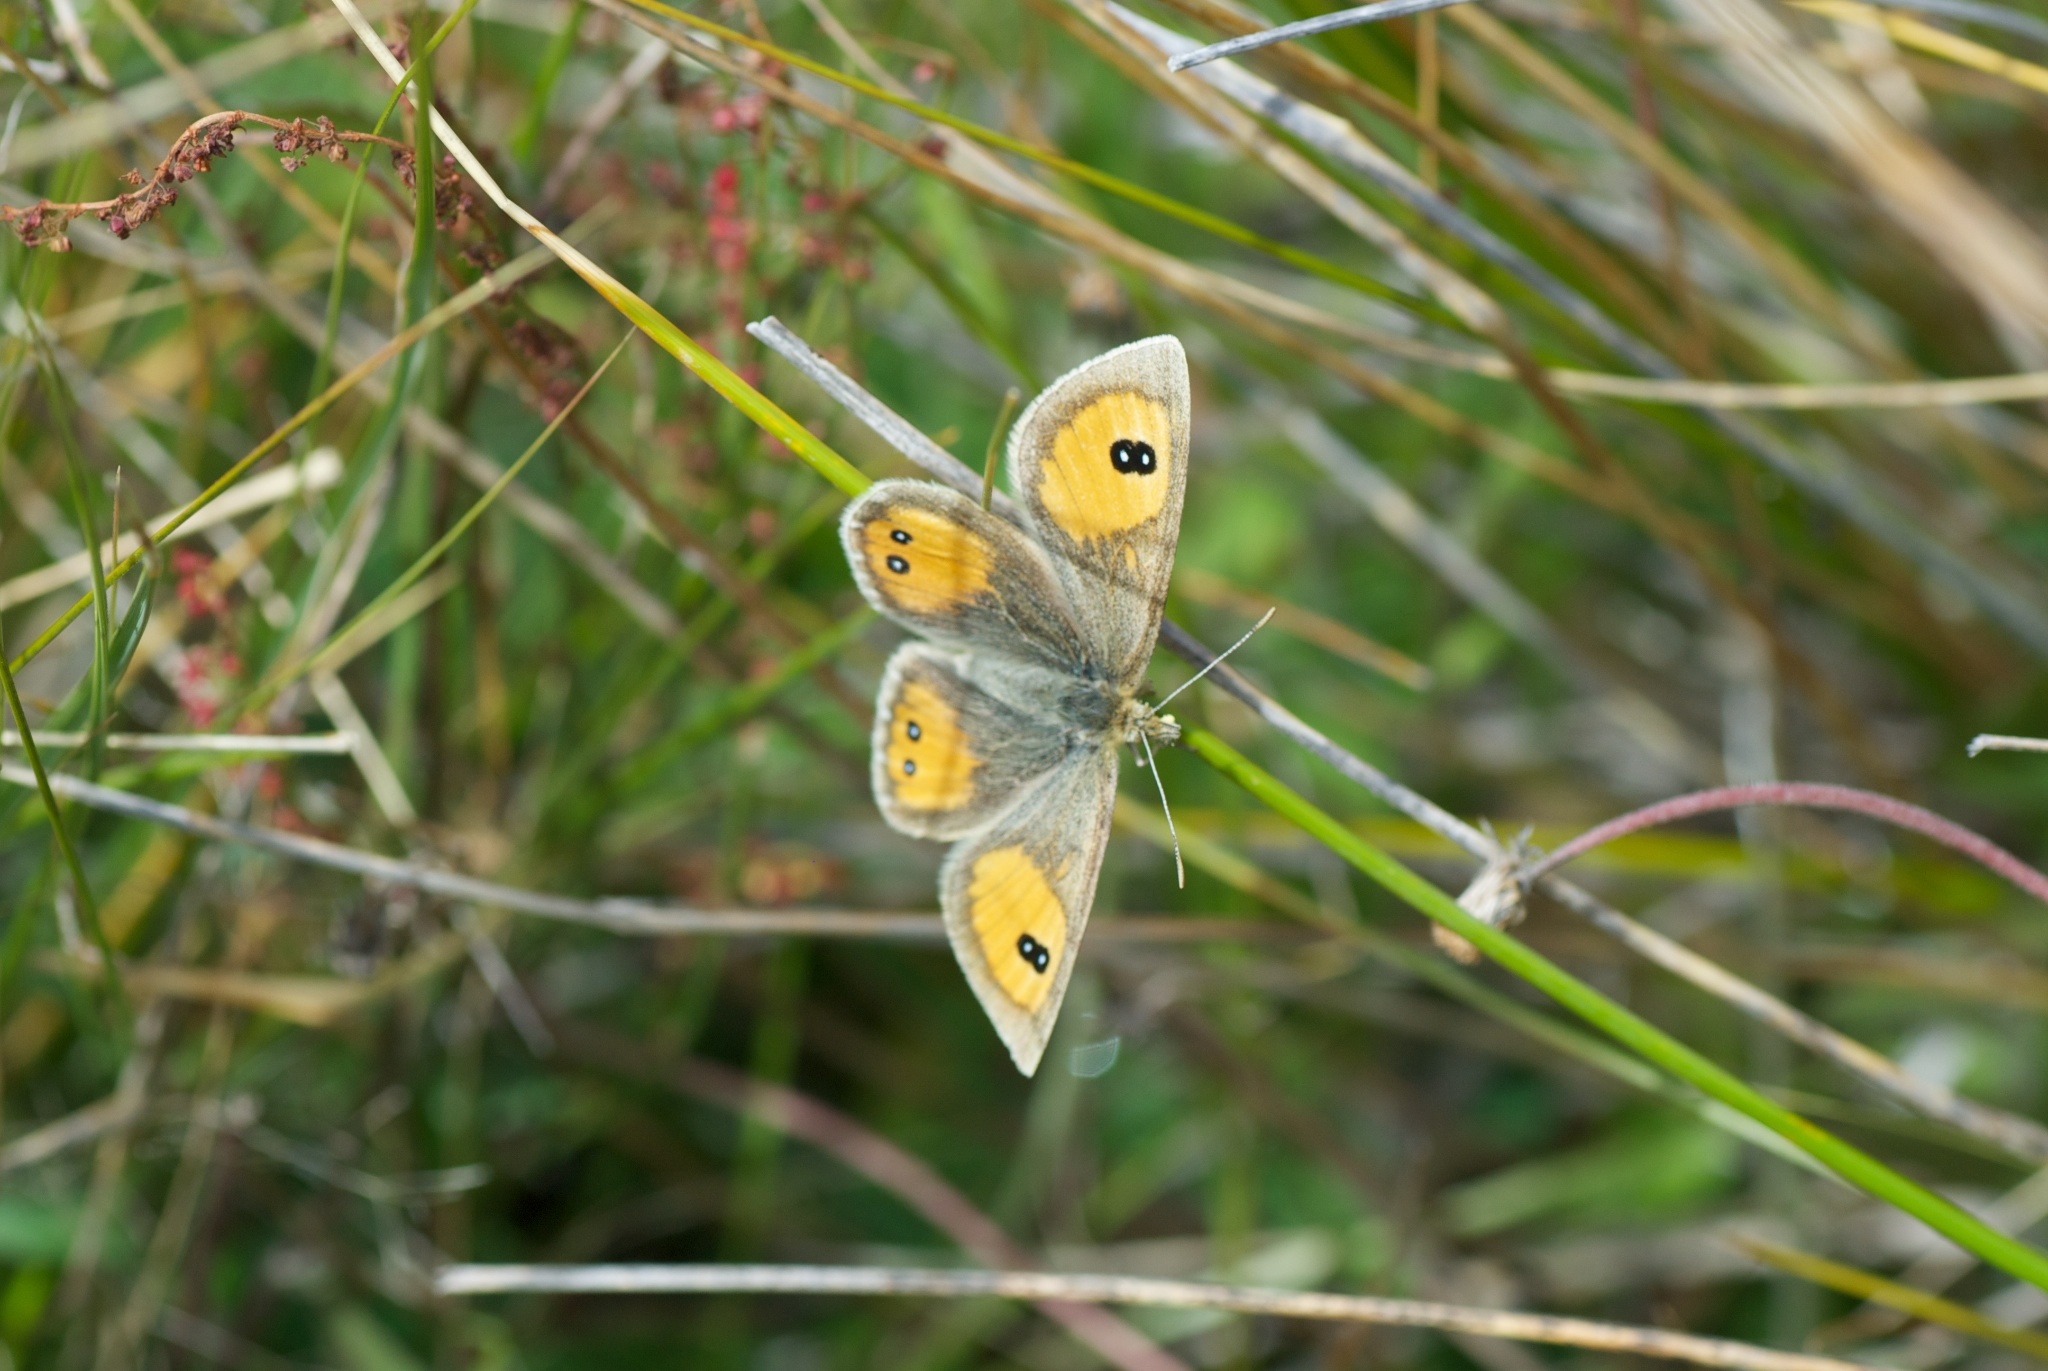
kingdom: Animalia
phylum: Arthropoda
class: Insecta
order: Lepidoptera
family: Nymphalidae
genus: Argyrophenga
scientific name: Argyrophenga janitae
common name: Janita's tussock
